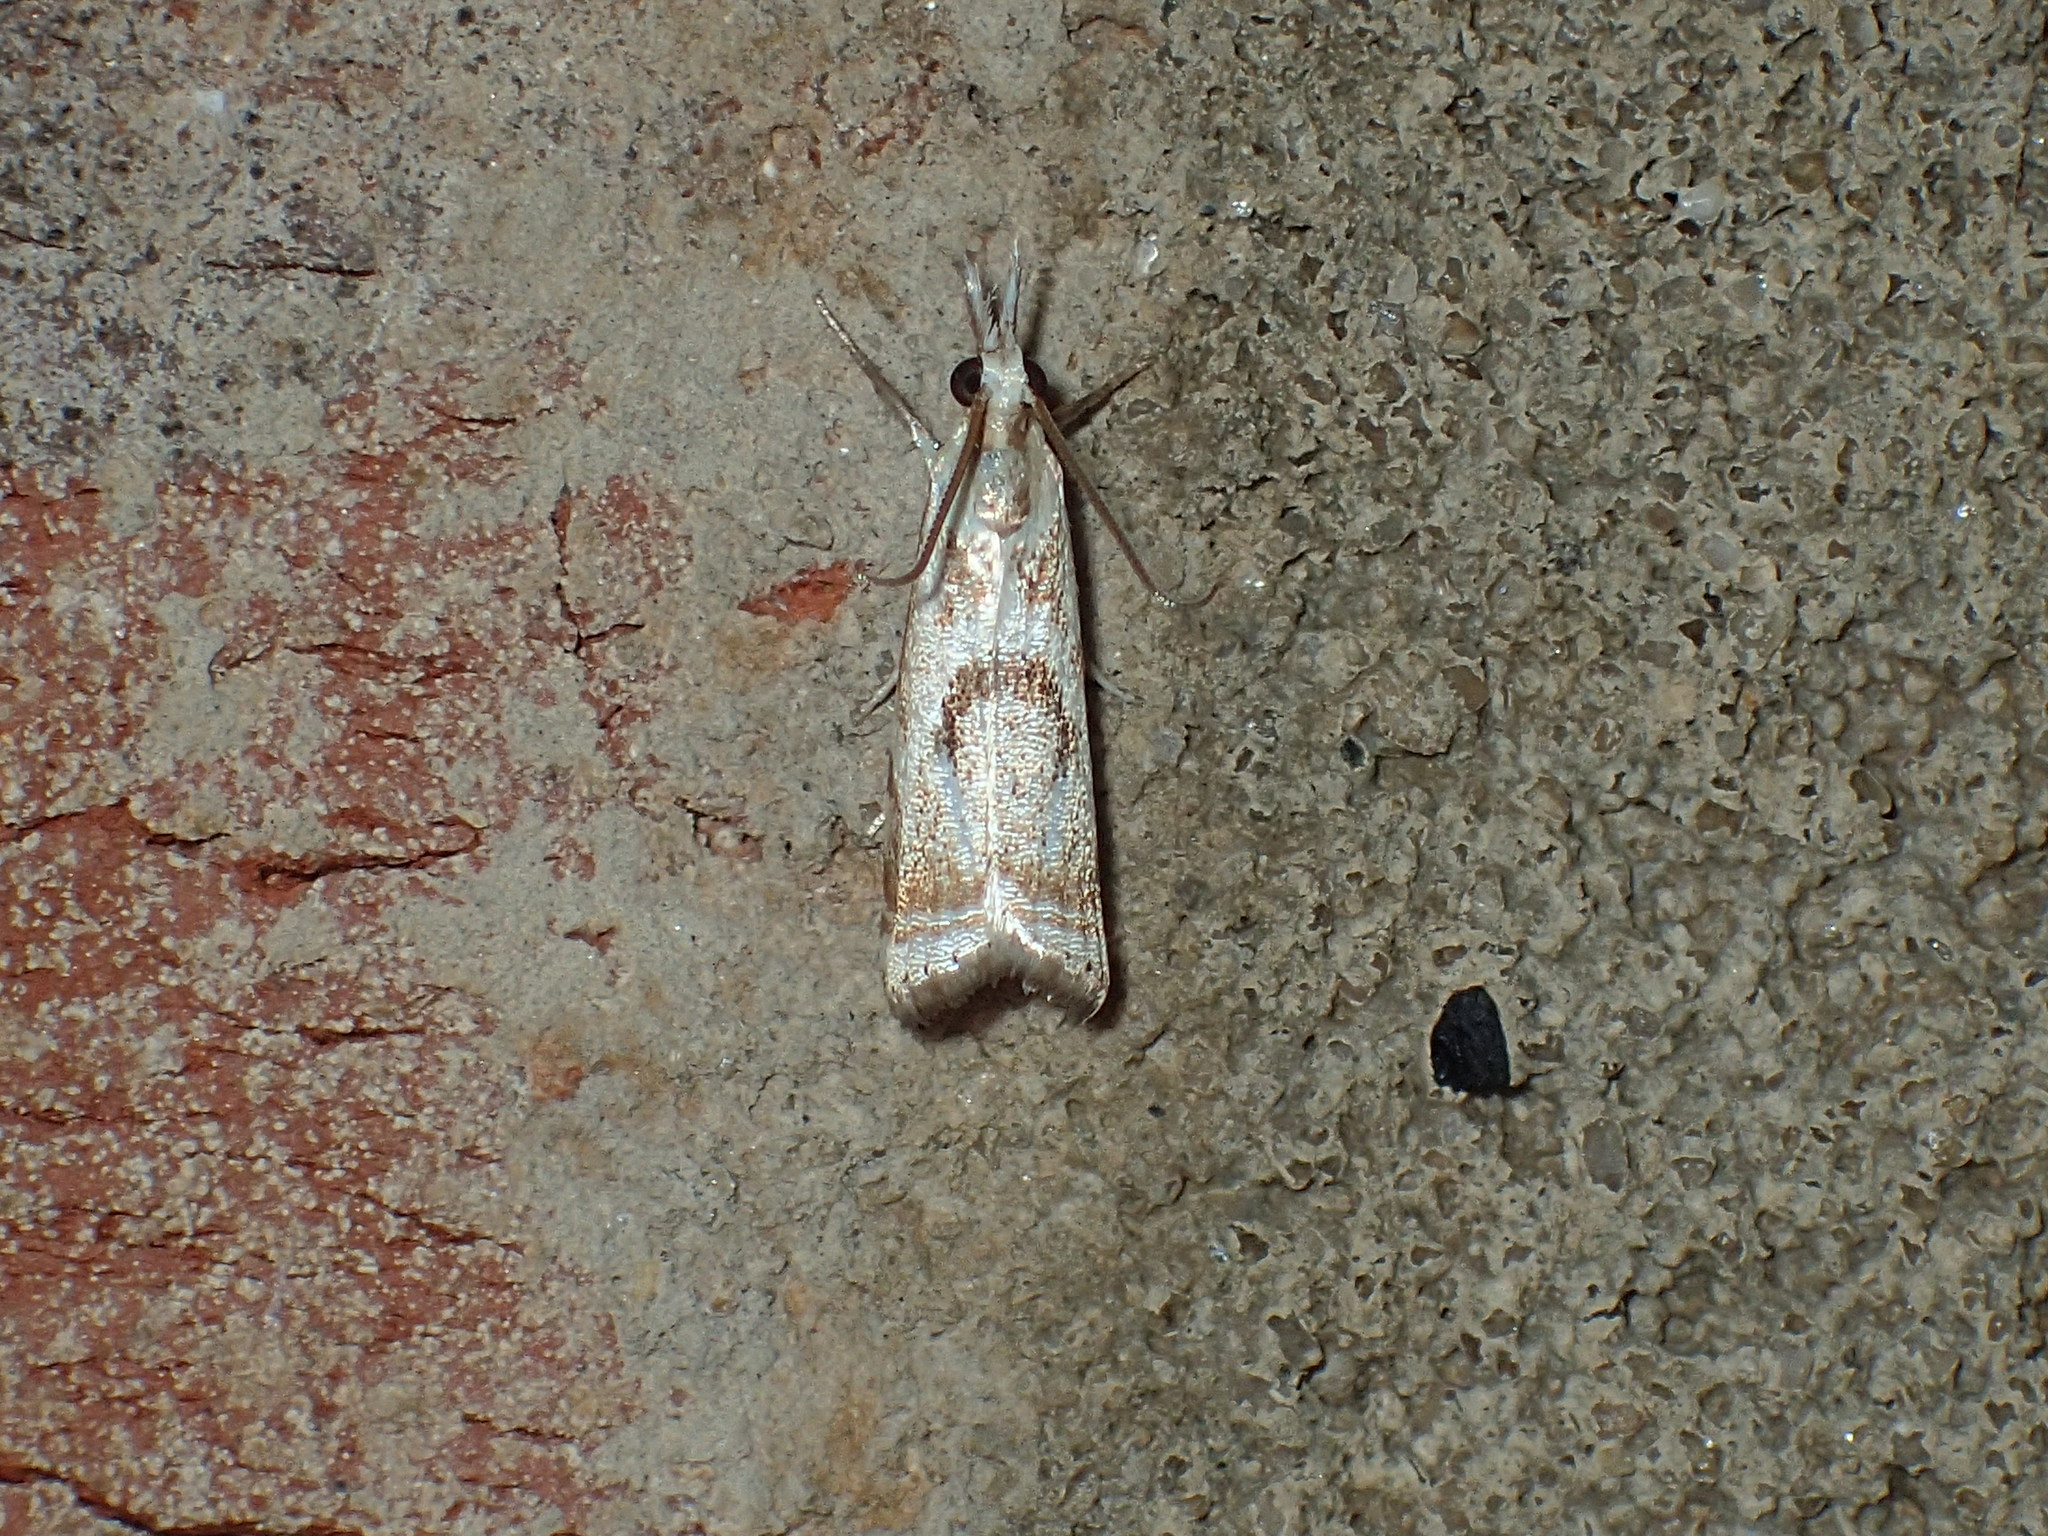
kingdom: Animalia
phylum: Arthropoda
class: Insecta
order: Lepidoptera
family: Crambidae
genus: Microcrambus
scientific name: Microcrambus elegans
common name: Elegant grass-veneer
